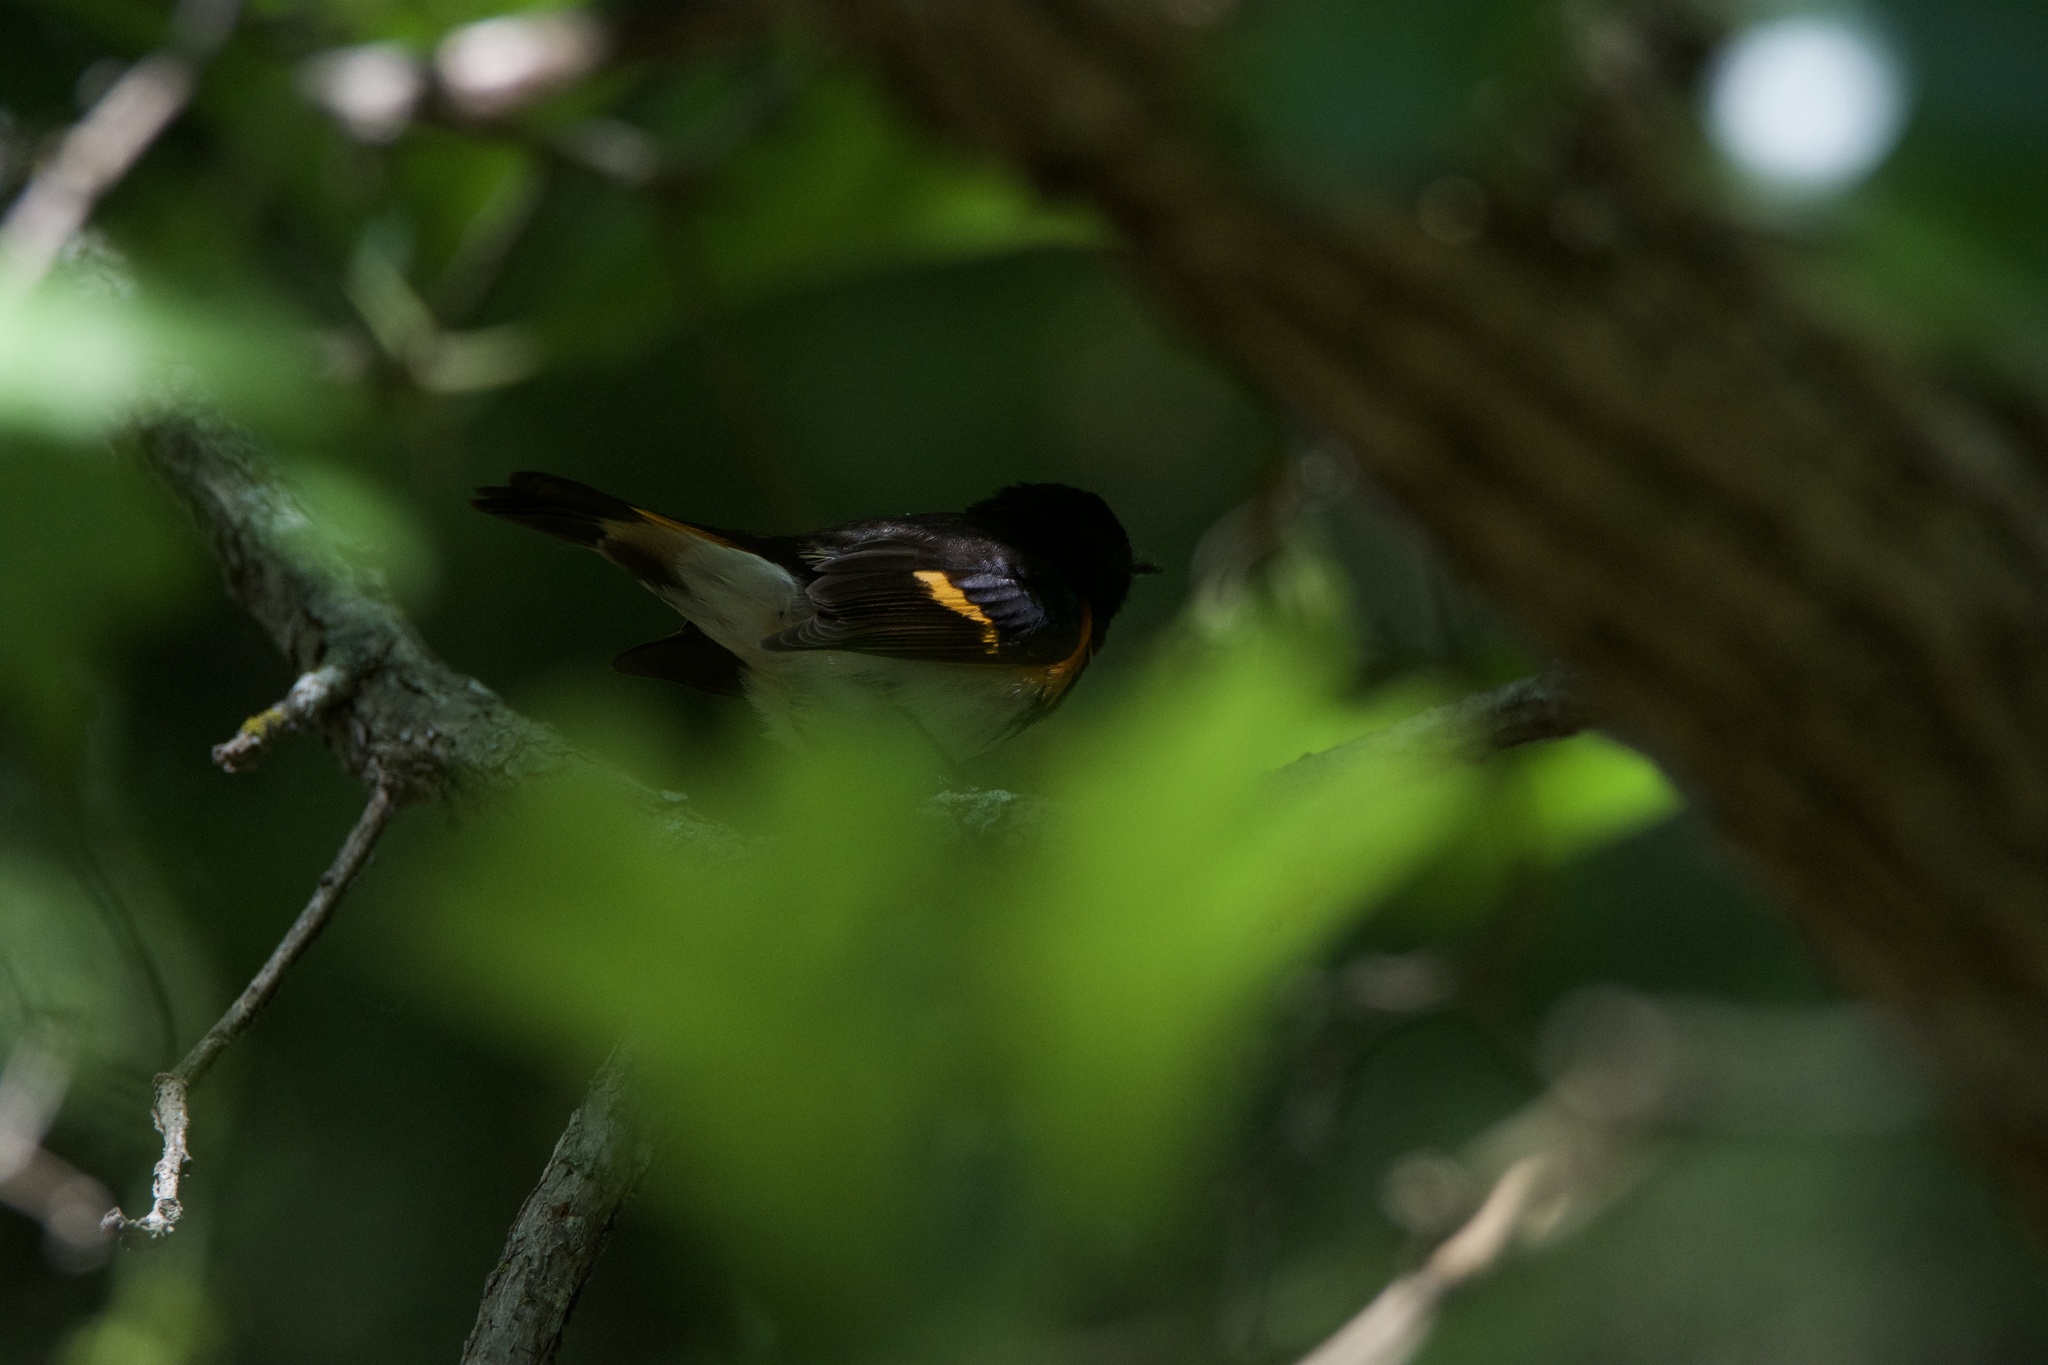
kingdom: Animalia
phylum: Chordata
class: Aves
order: Passeriformes
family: Parulidae
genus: Setophaga
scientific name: Setophaga ruticilla
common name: American redstart
